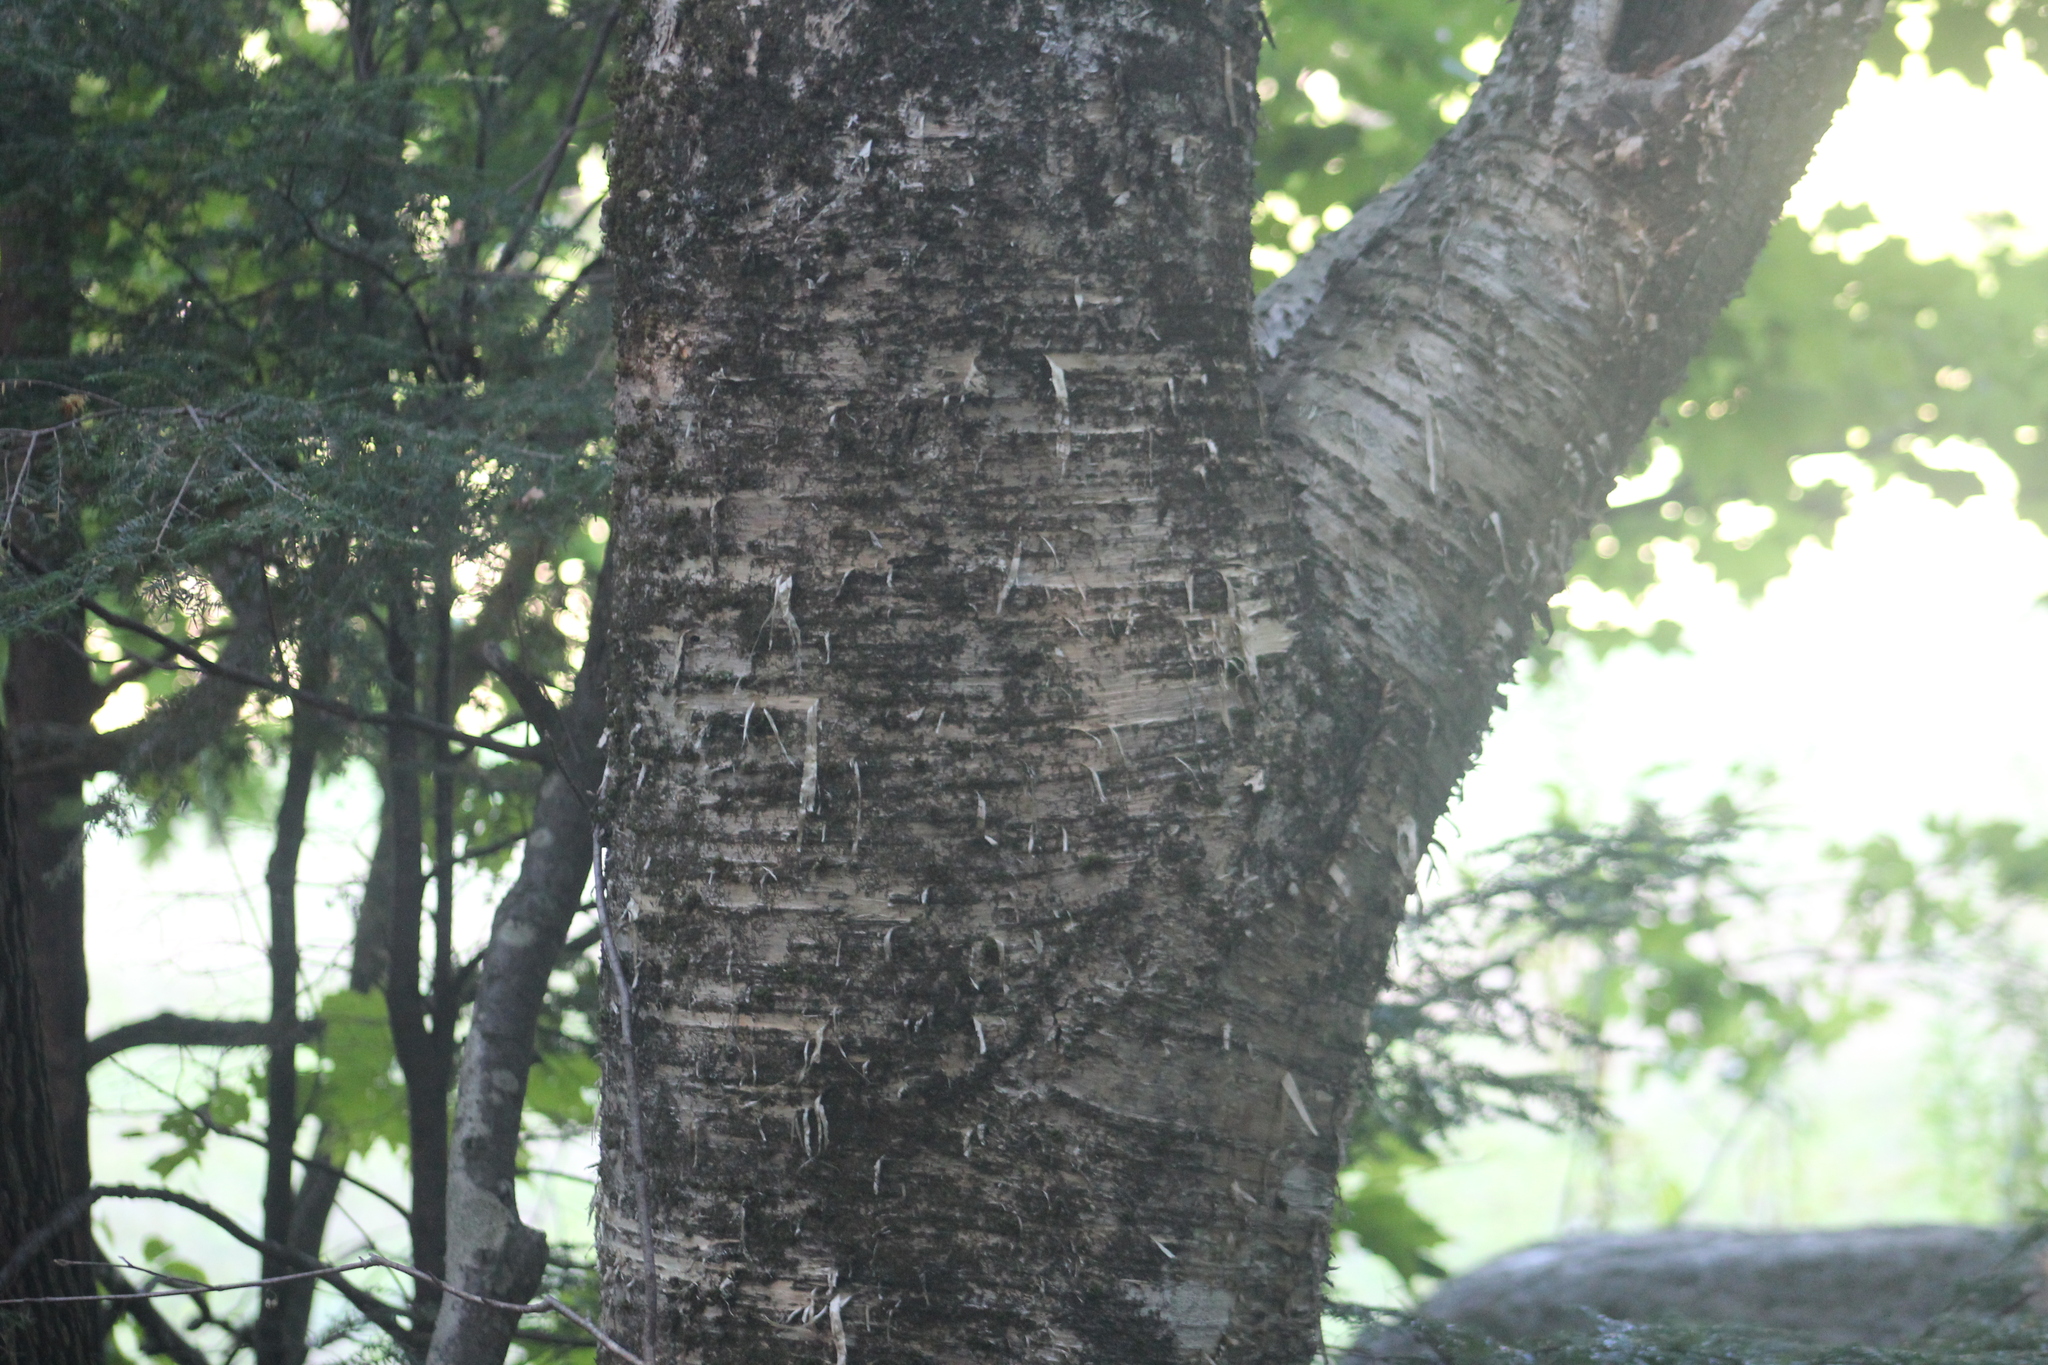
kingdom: Plantae
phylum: Tracheophyta
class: Magnoliopsida
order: Fagales
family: Betulaceae
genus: Betula
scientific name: Betula alleghaniensis
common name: Yellow birch
